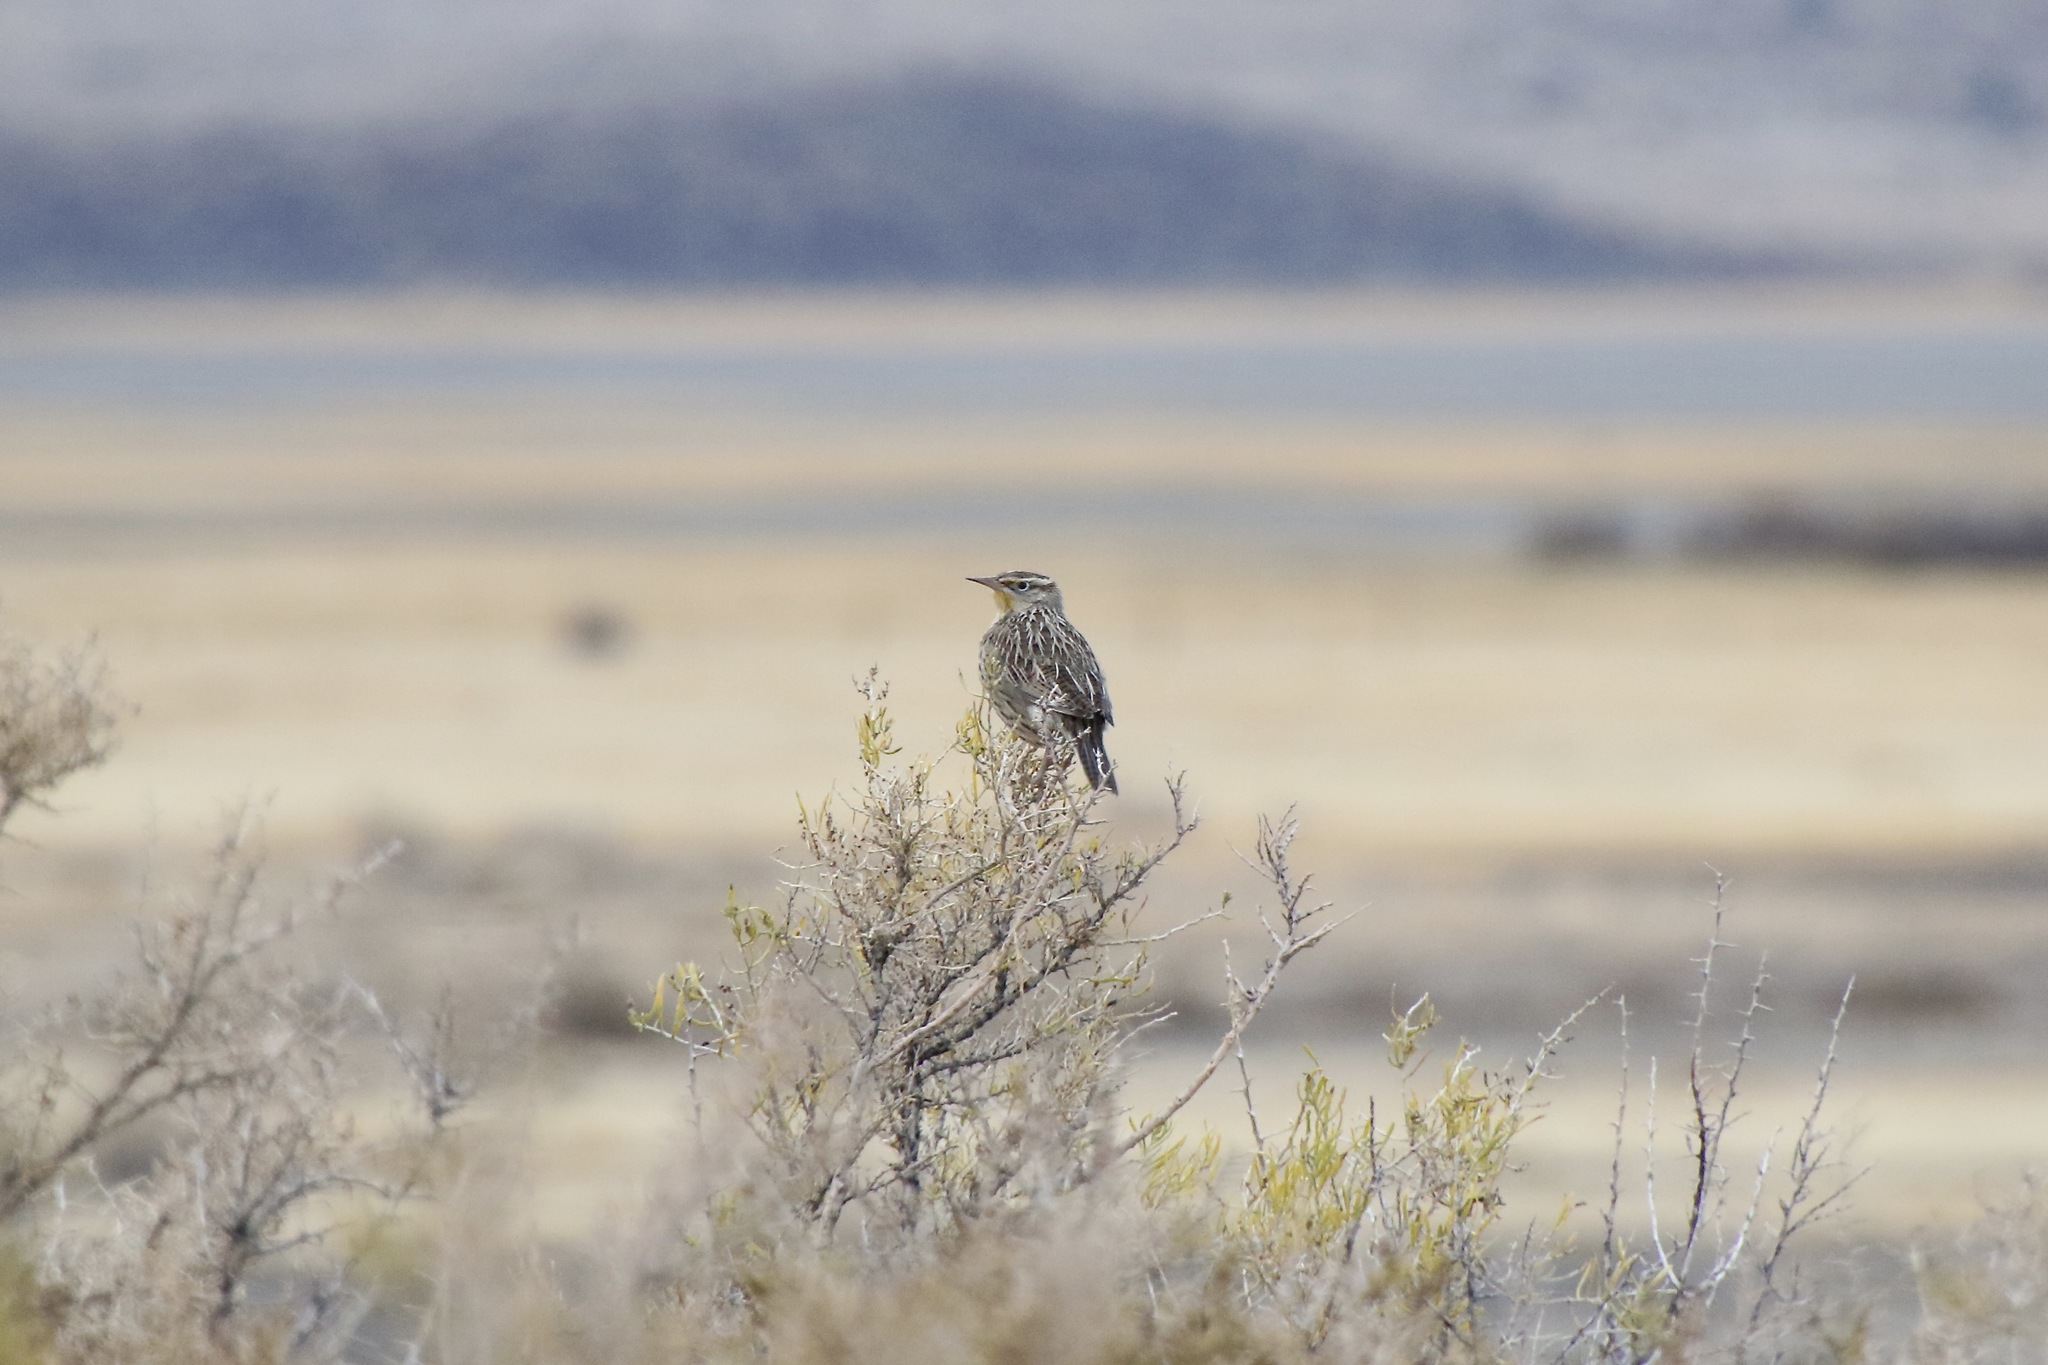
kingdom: Animalia
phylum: Chordata
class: Aves
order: Passeriformes
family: Icteridae
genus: Sturnella
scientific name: Sturnella neglecta
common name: Western meadowlark
